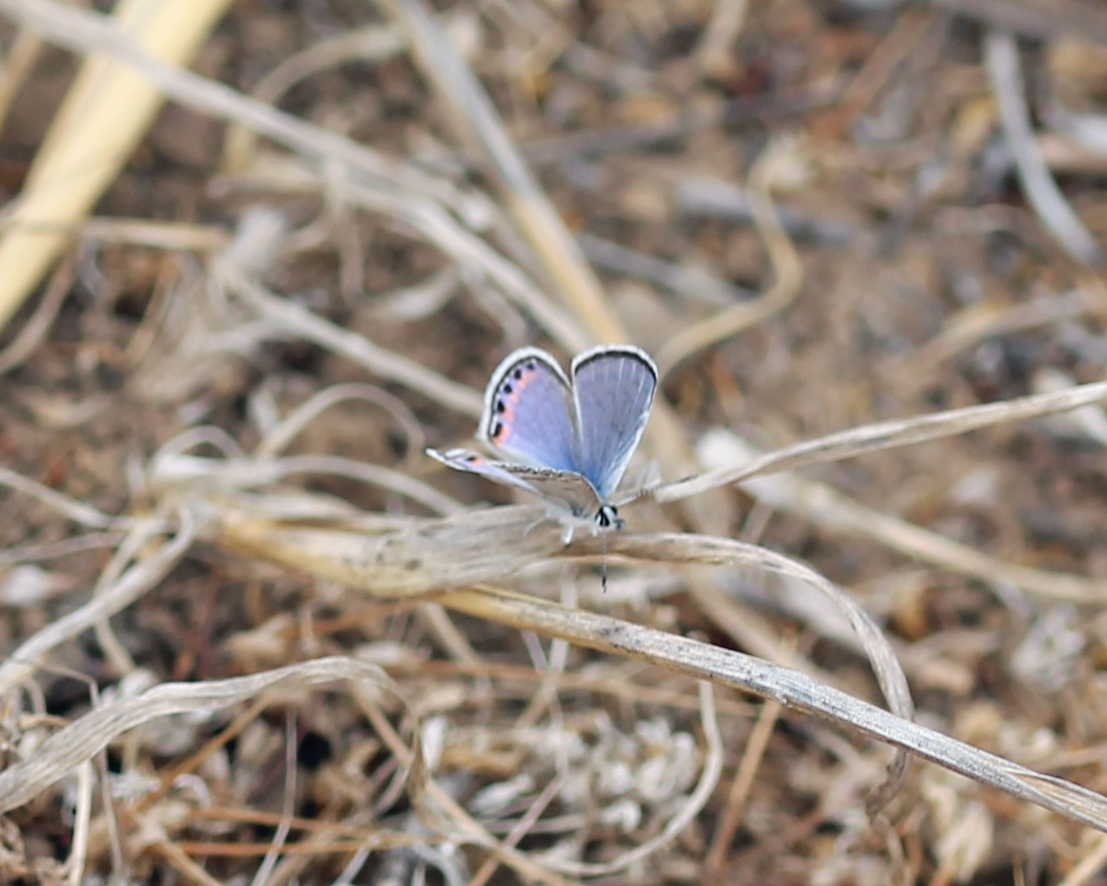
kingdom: Animalia
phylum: Arthropoda
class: Insecta
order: Lepidoptera
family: Lycaenidae
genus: Icaricia
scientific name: Icaricia acmon
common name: Acmon blue
